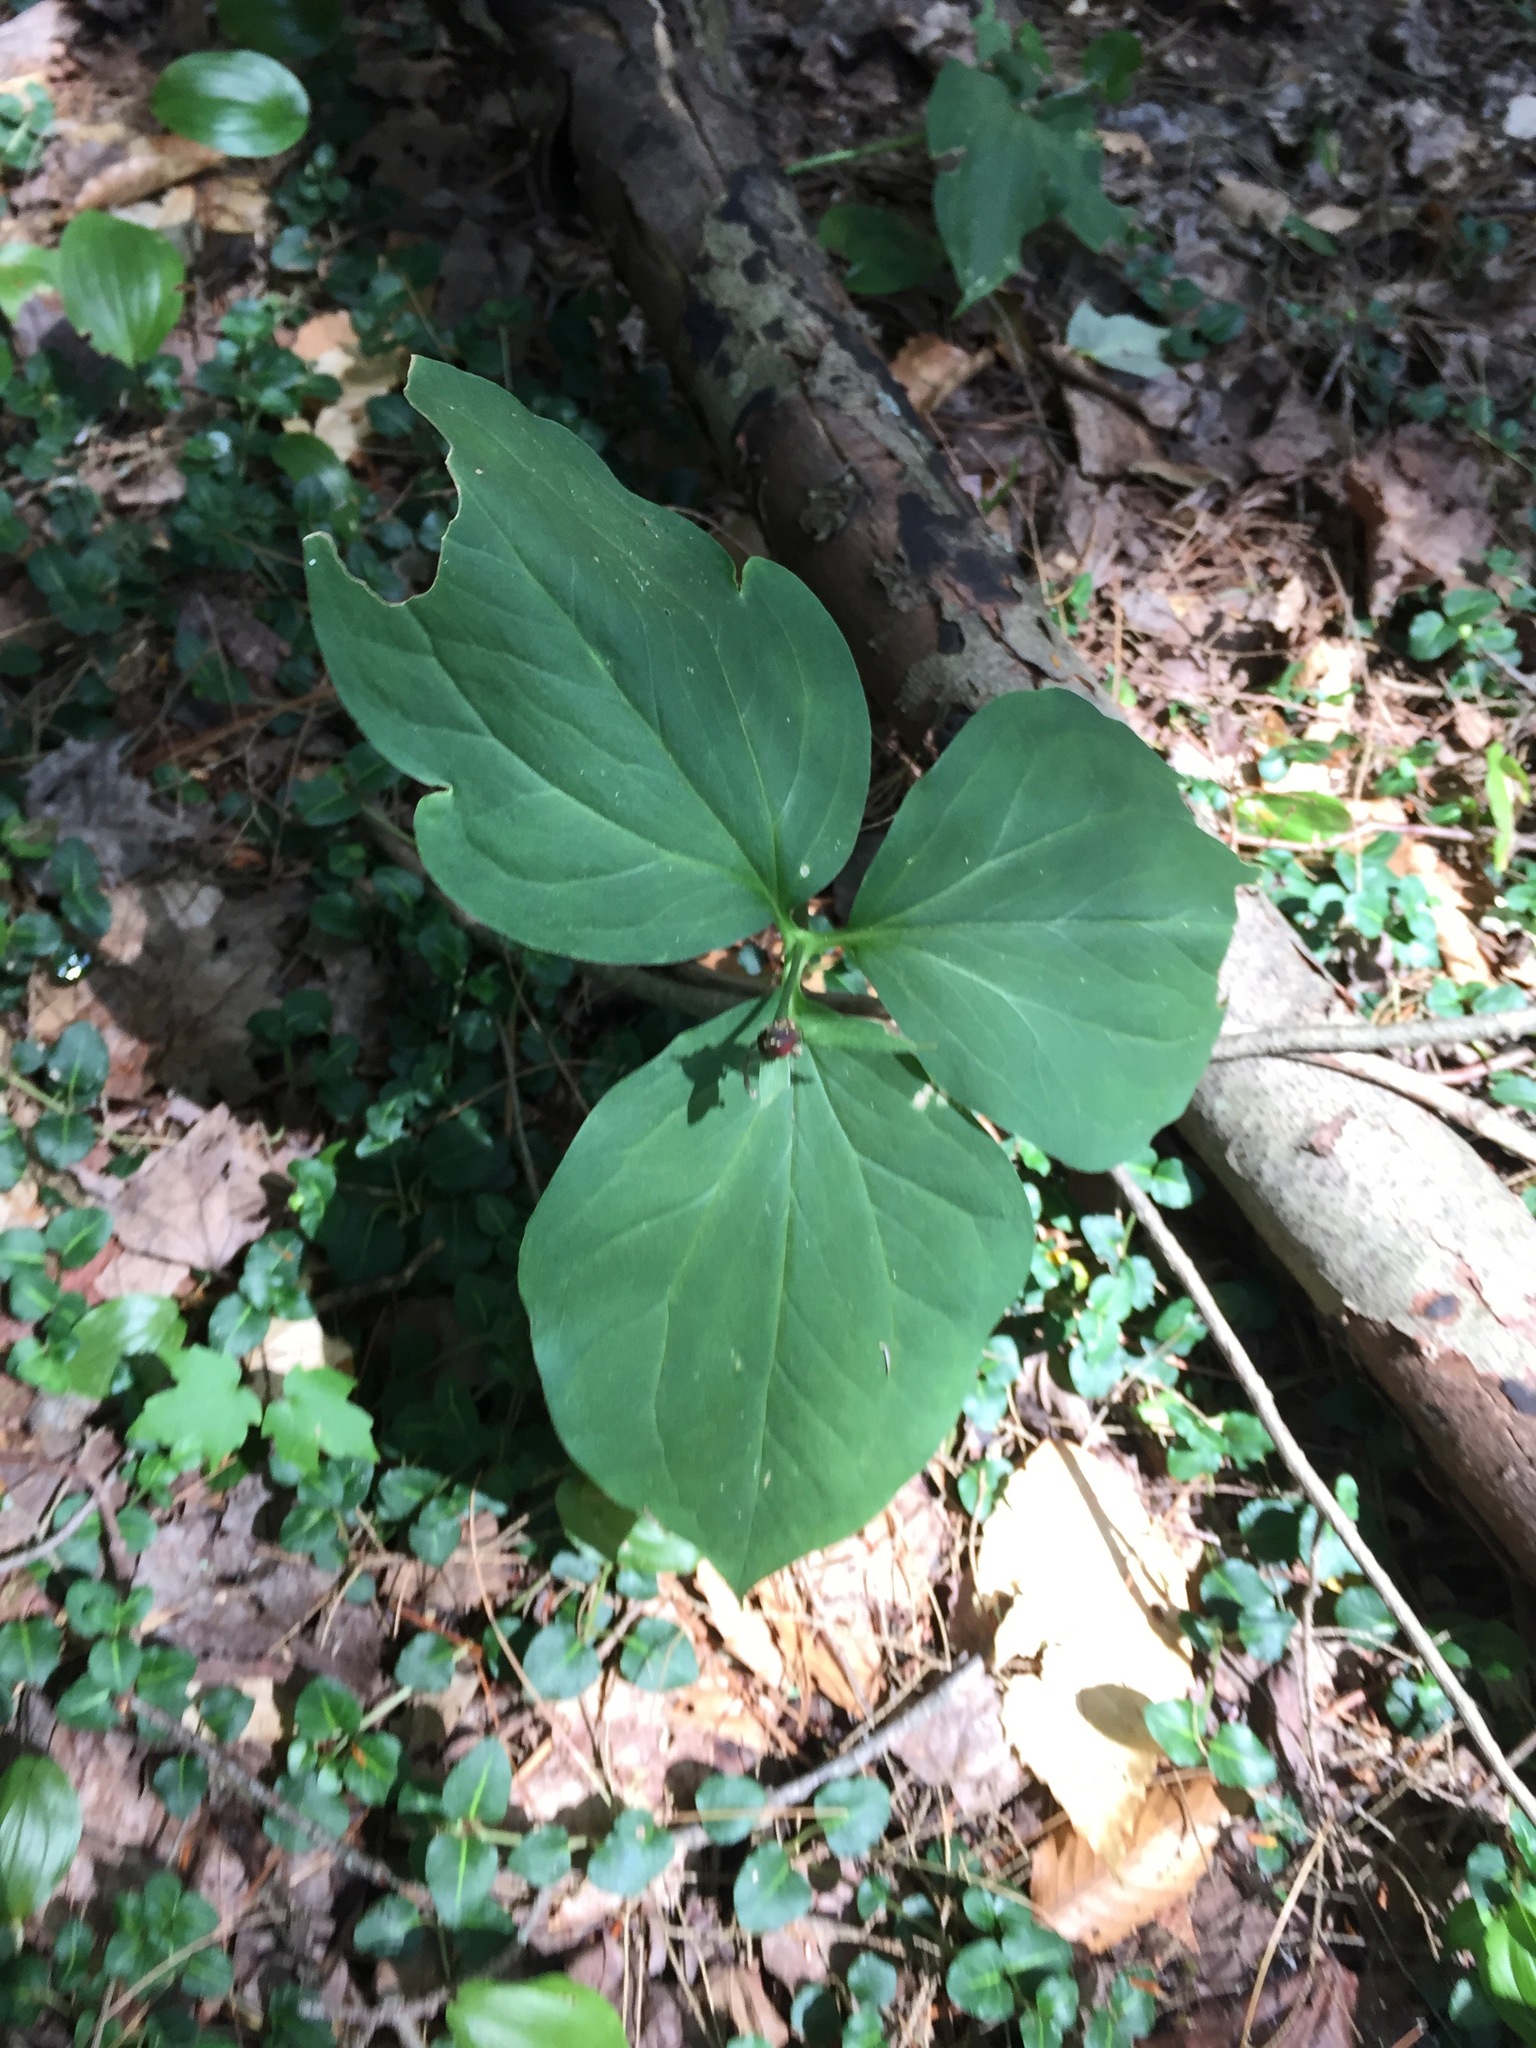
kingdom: Plantae
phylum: Tracheophyta
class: Liliopsida
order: Liliales
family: Melanthiaceae
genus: Trillium
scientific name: Trillium undulatum
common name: Paint trillium
